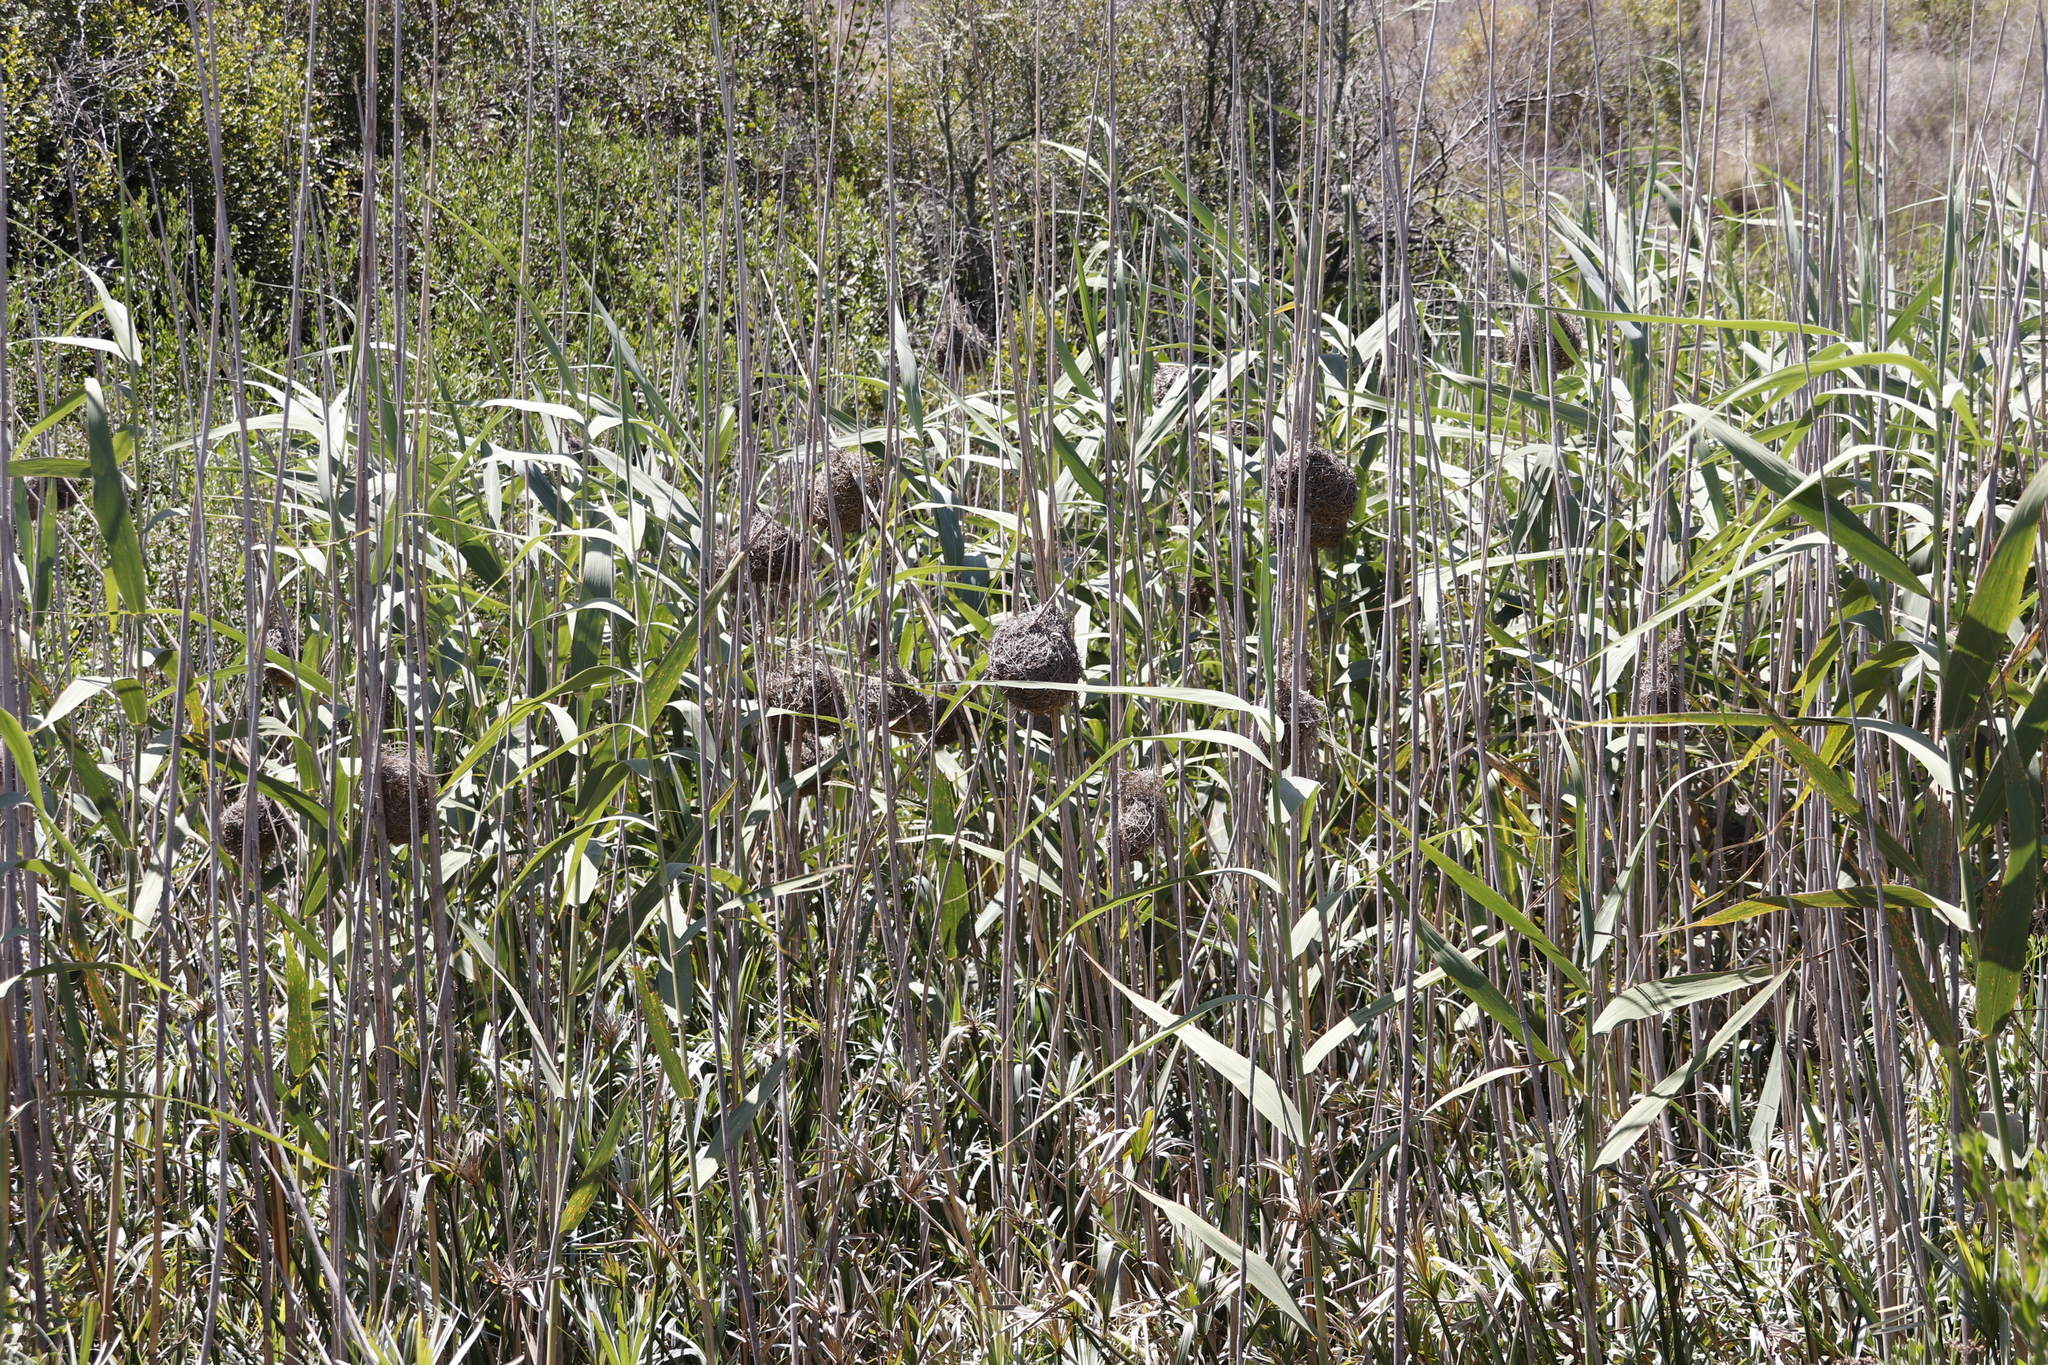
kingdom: Animalia
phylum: Chordata
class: Aves
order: Passeriformes
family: Ploceidae
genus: Euplectes
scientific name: Euplectes orix
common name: Southern red bishop
